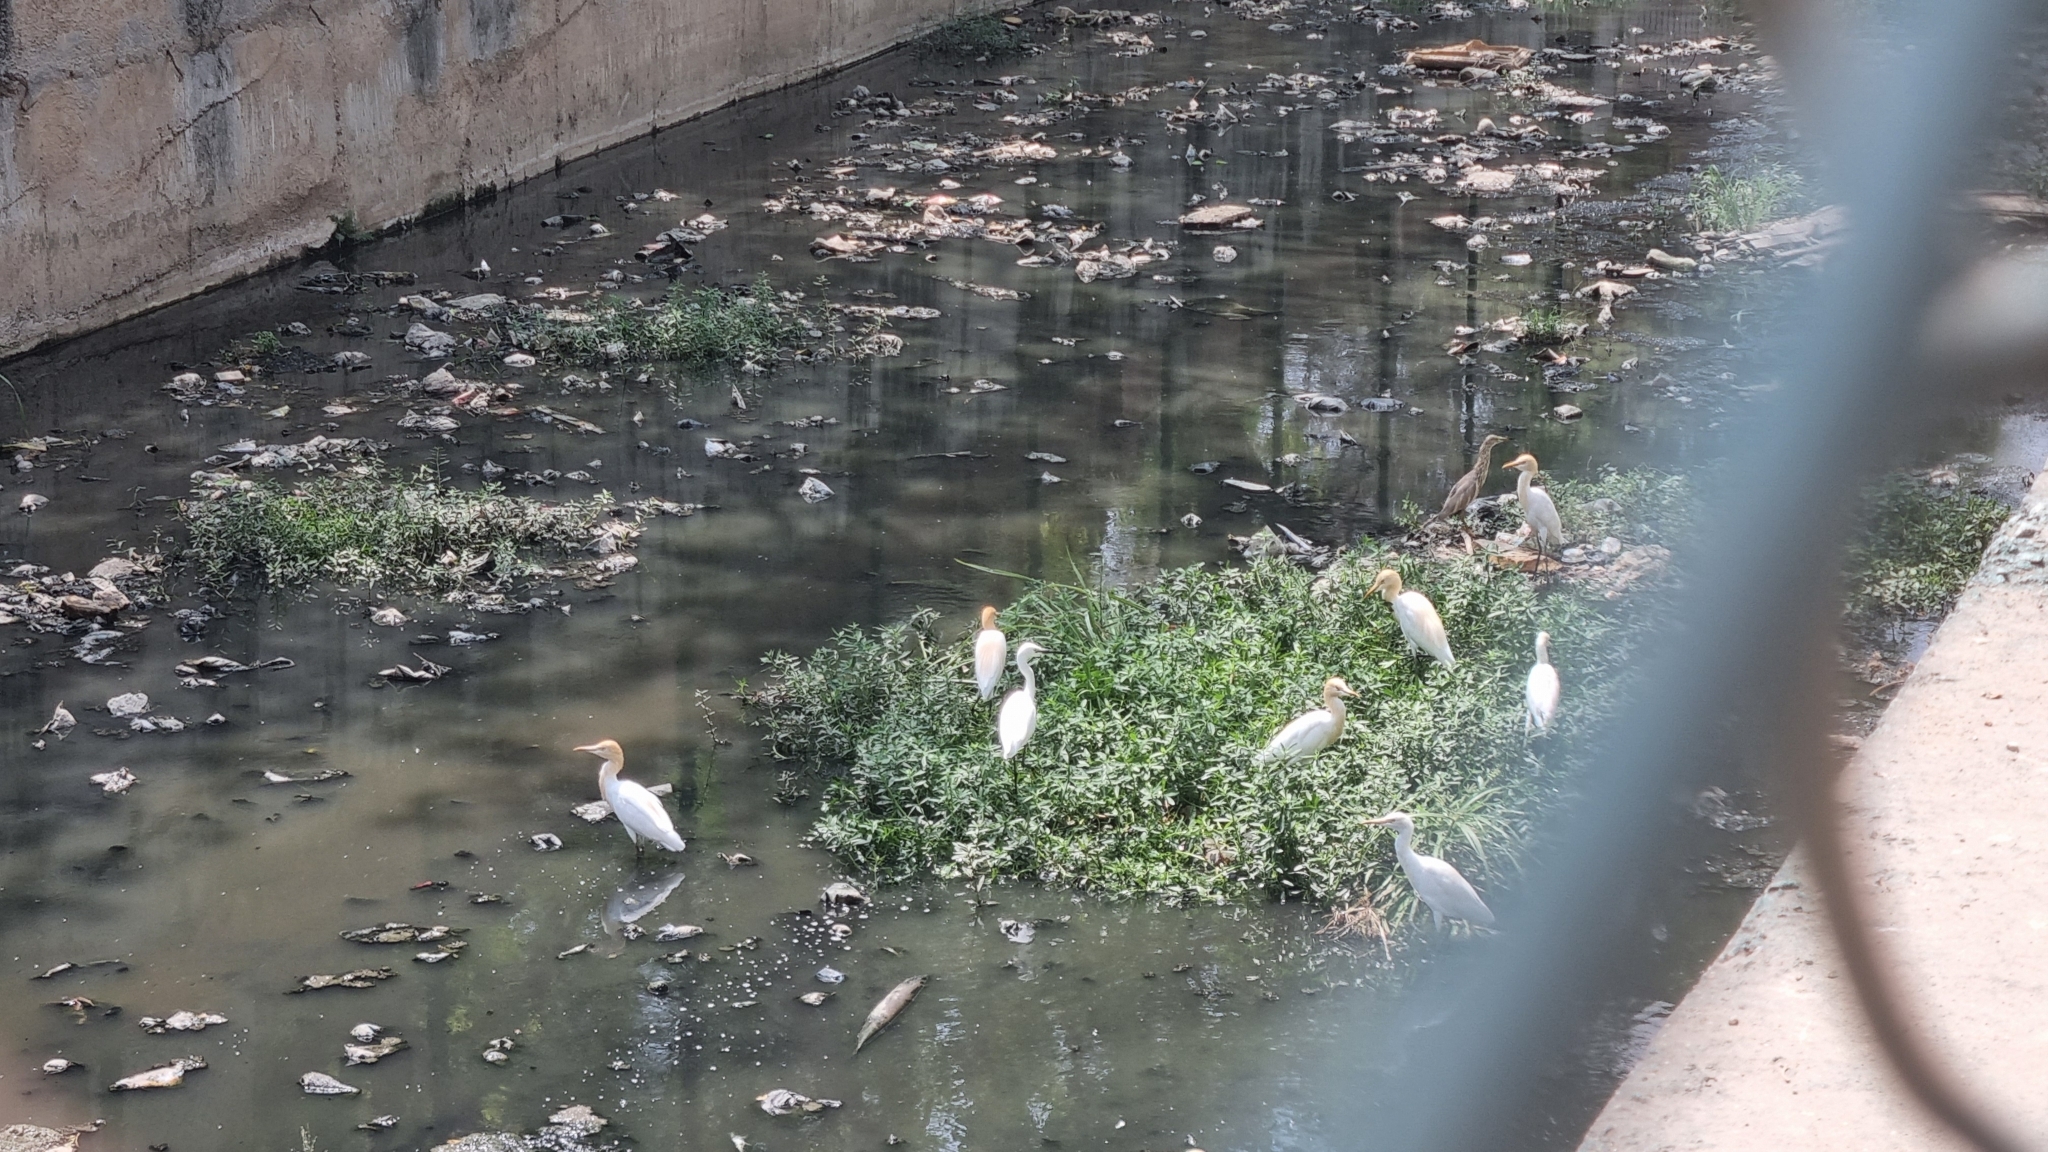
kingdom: Animalia
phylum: Chordata
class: Aves
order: Pelecaniformes
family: Ardeidae
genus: Egretta
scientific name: Egretta garzetta
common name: Little egret
